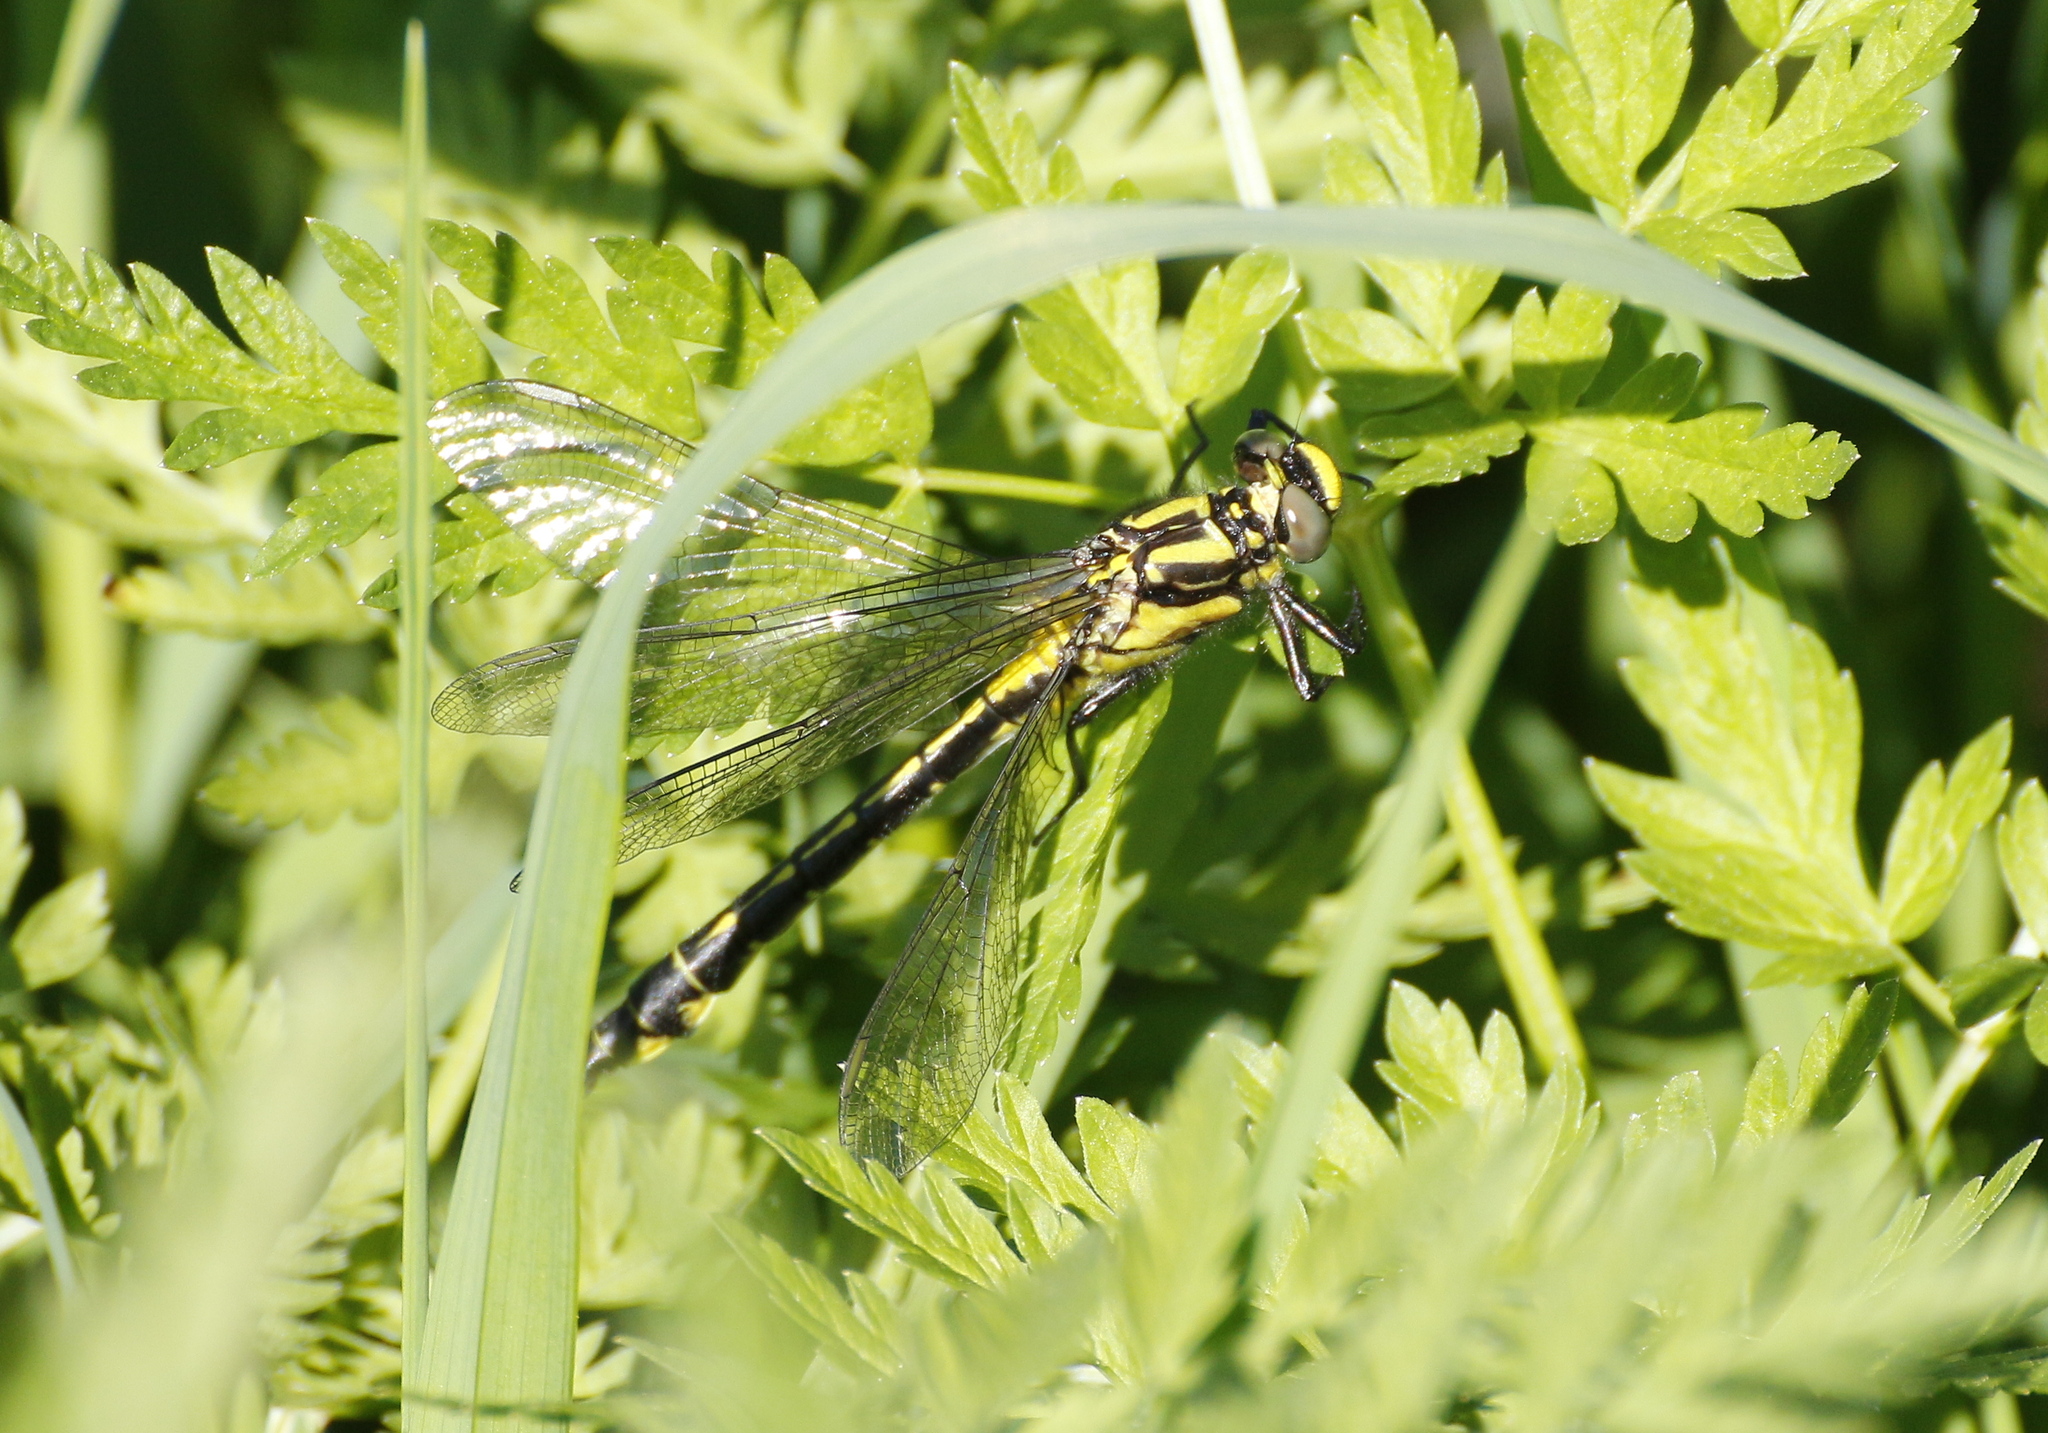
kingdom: Animalia
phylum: Arthropoda
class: Insecta
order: Odonata
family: Gomphidae
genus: Gomphus
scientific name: Gomphus vulgatissimus
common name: Club-tailed dragonfly
